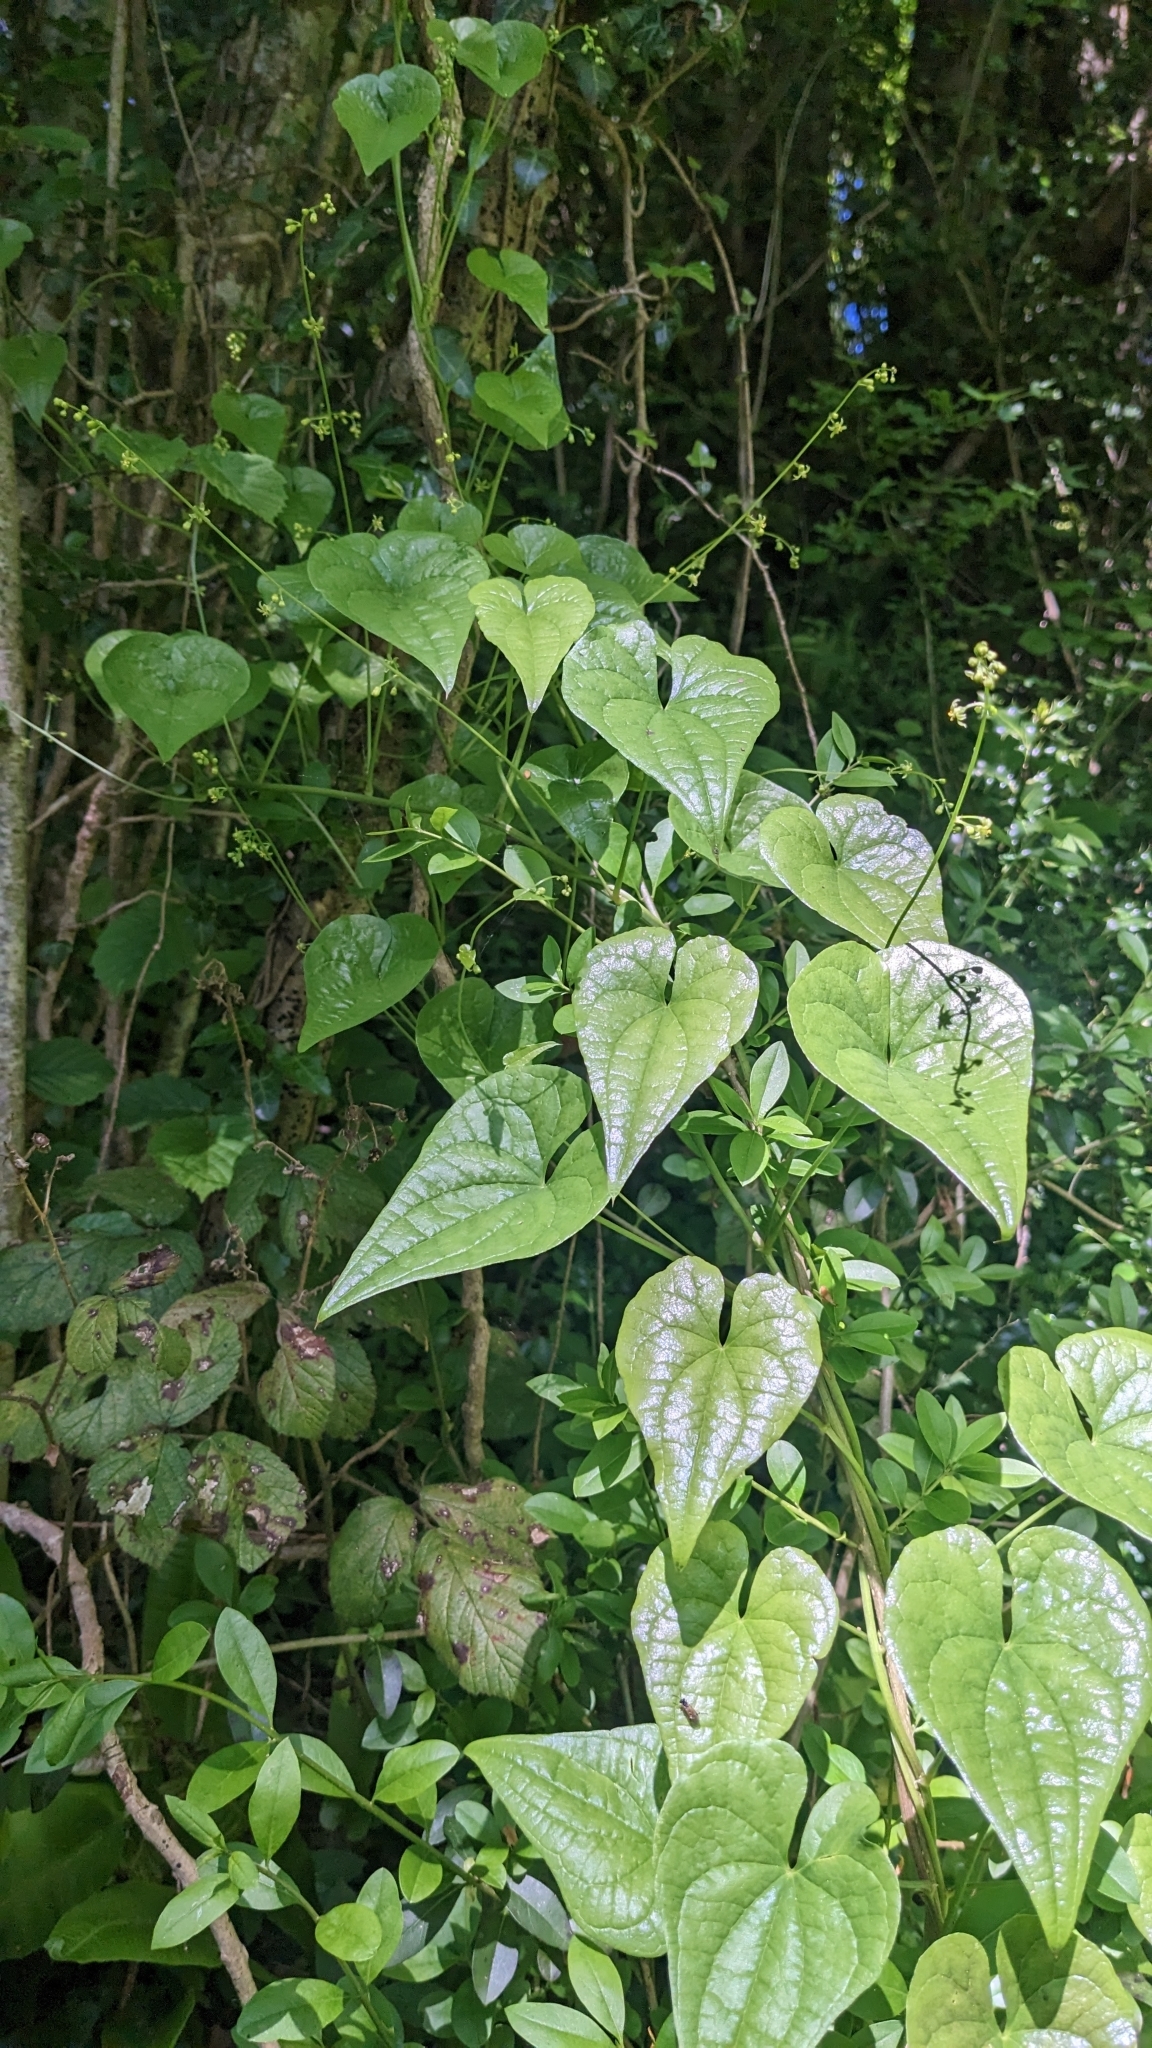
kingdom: Plantae
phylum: Tracheophyta
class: Liliopsida
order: Dioscoreales
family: Dioscoreaceae
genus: Dioscorea
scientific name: Dioscorea communis
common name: Black-bindweed
